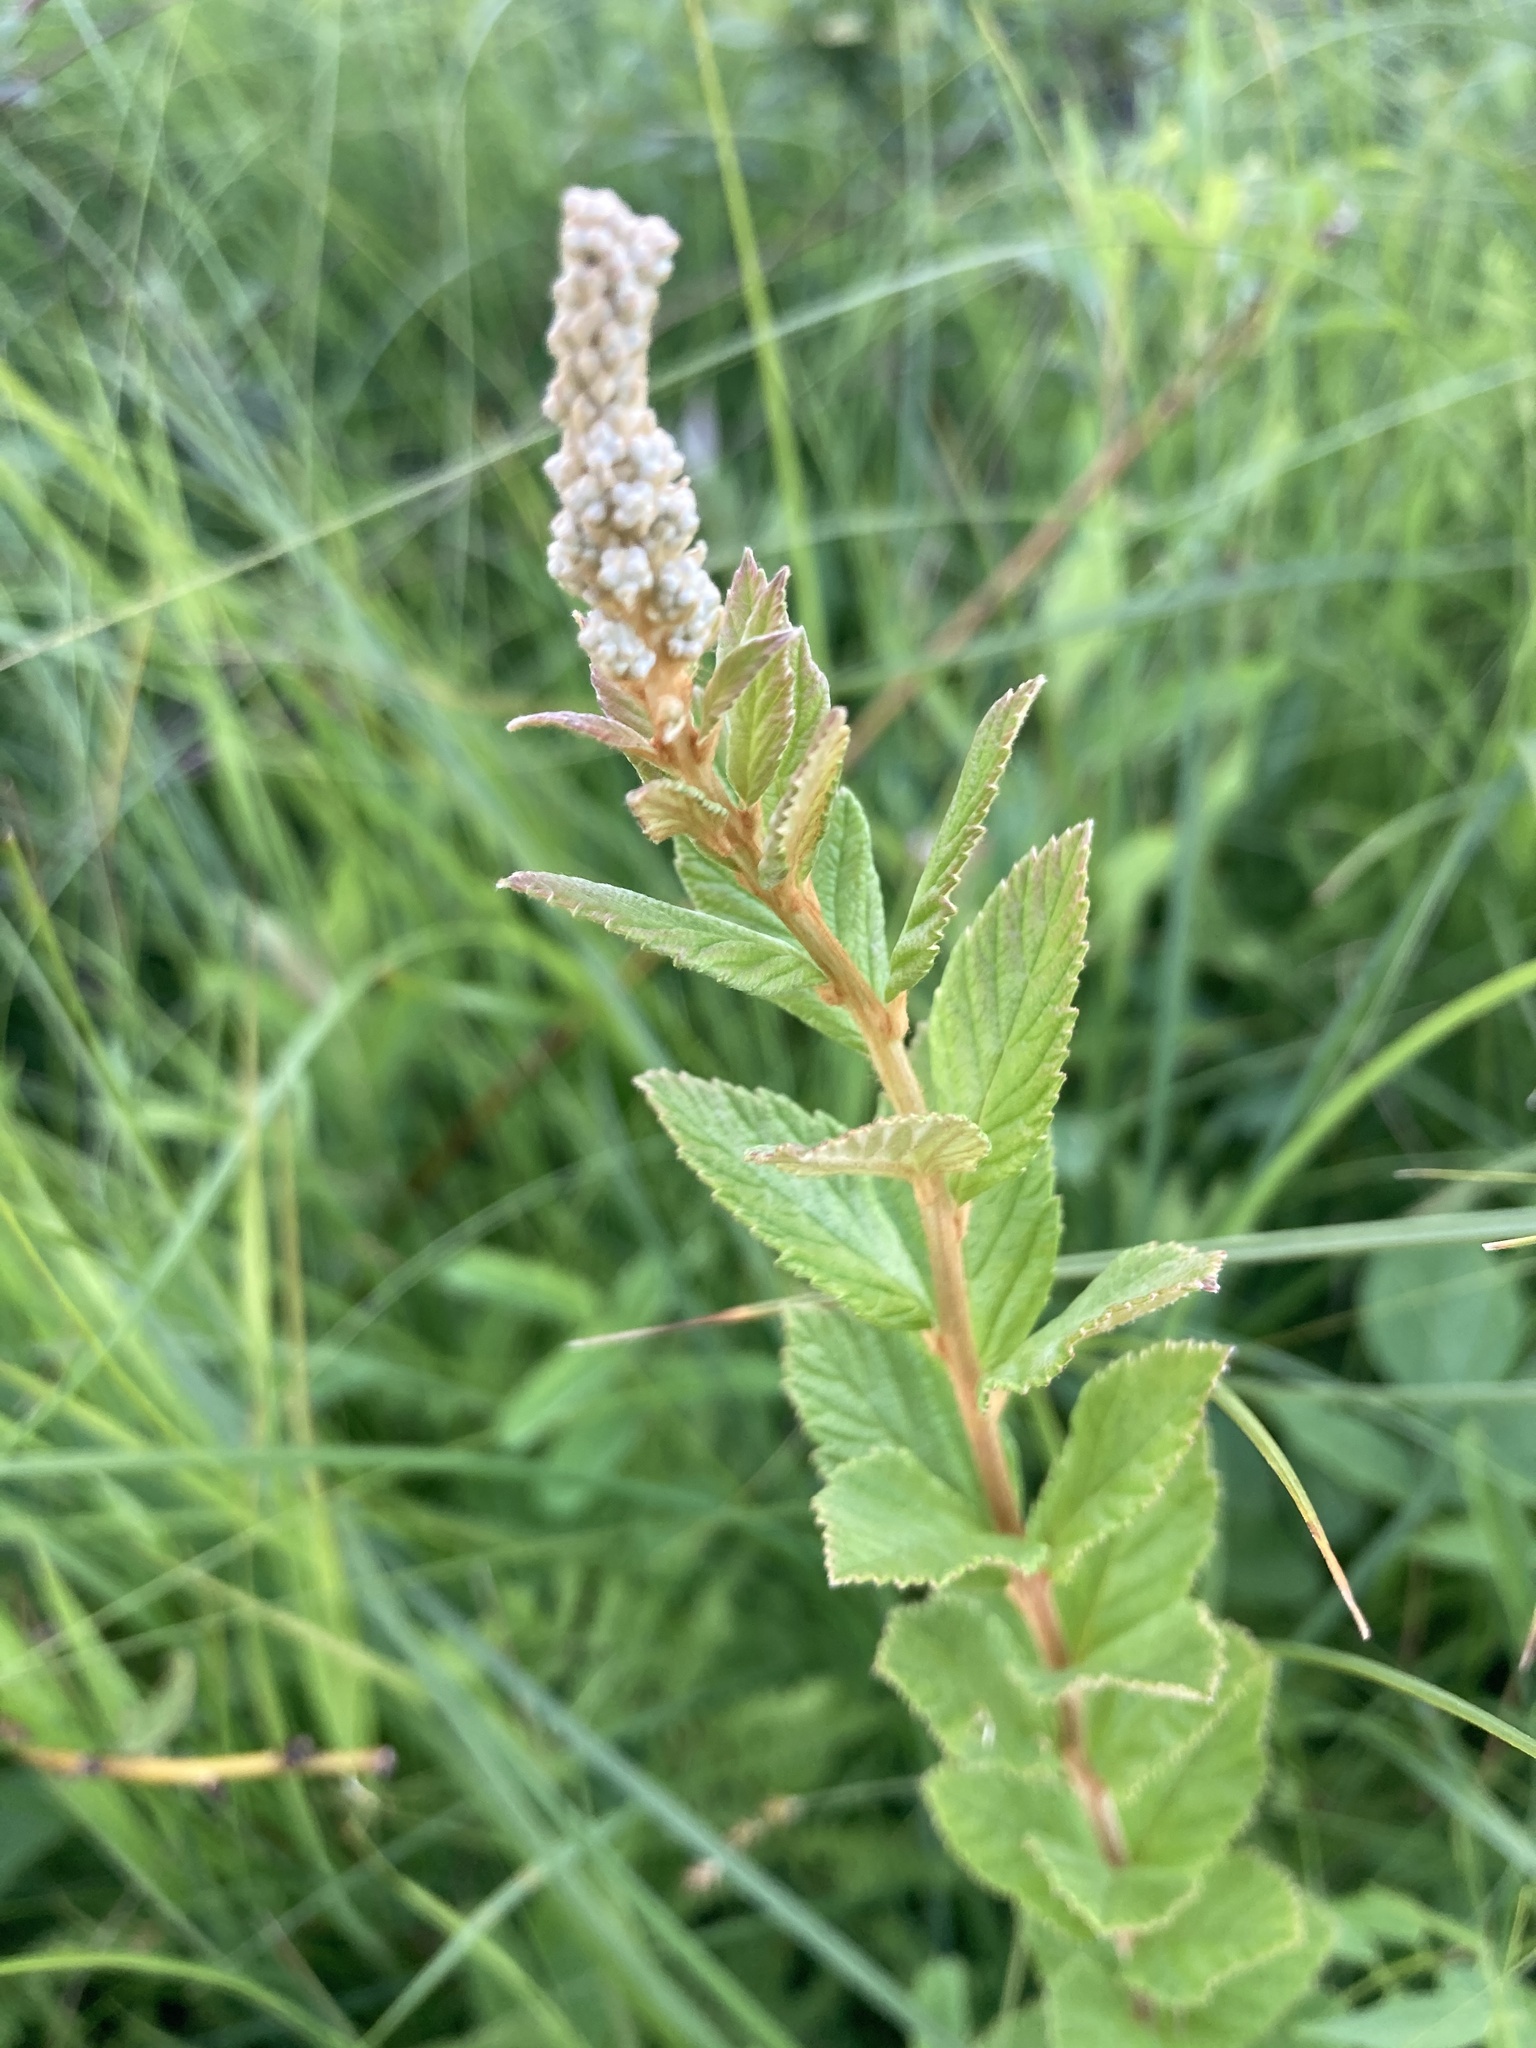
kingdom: Plantae
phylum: Tracheophyta
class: Magnoliopsida
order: Rosales
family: Rosaceae
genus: Spiraea
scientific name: Spiraea tomentosa
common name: Hardhack
